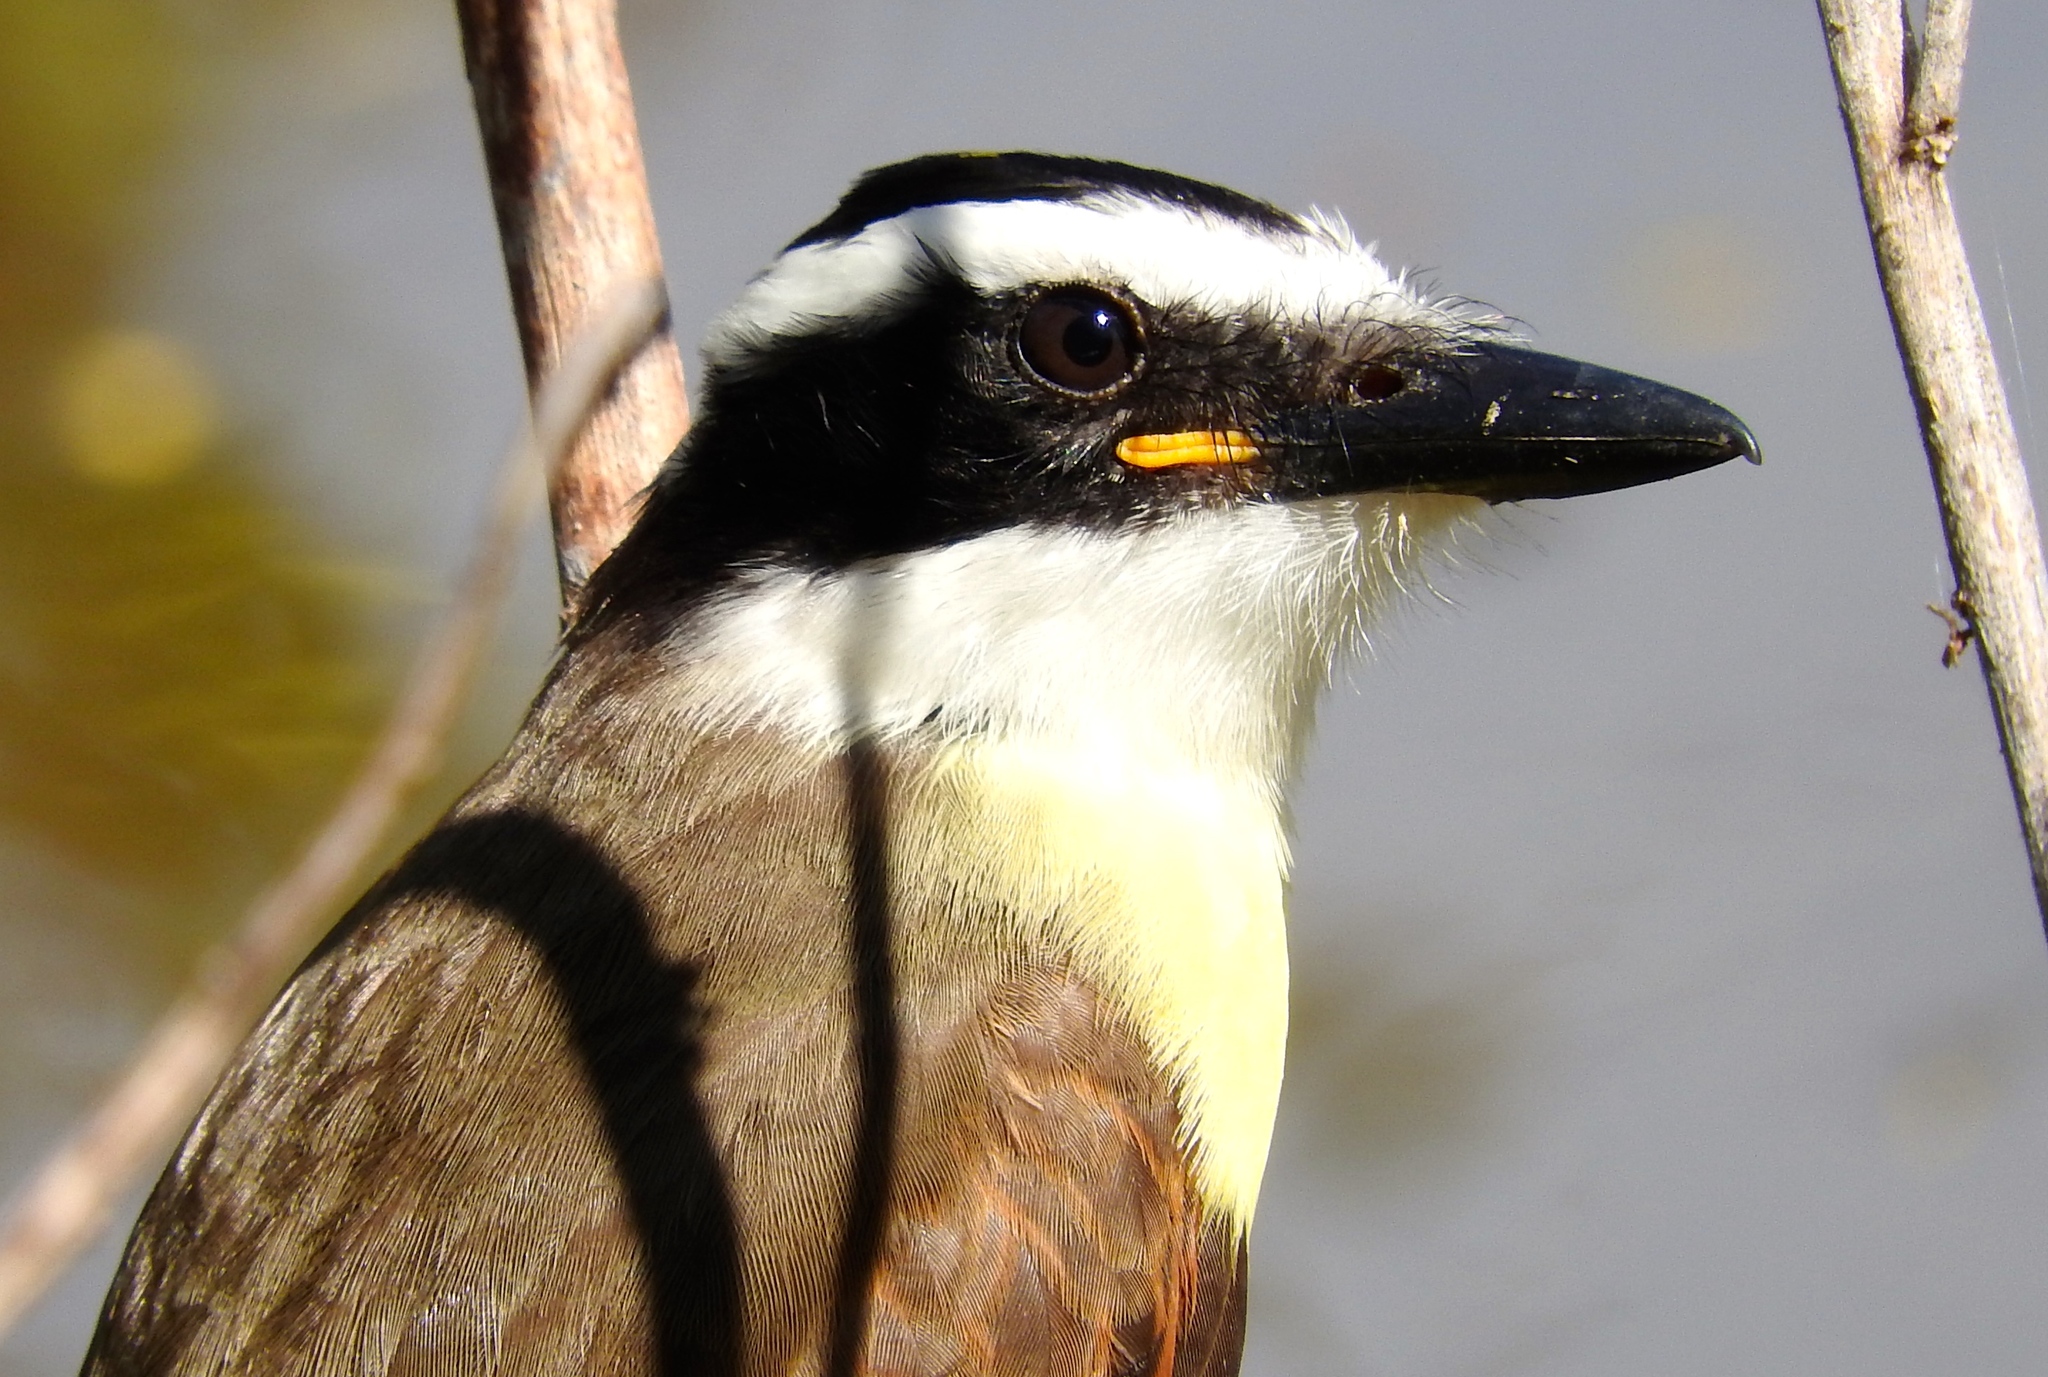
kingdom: Animalia
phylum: Chordata
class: Aves
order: Passeriformes
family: Tyrannidae
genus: Pitangus
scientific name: Pitangus sulphuratus
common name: Great kiskadee
